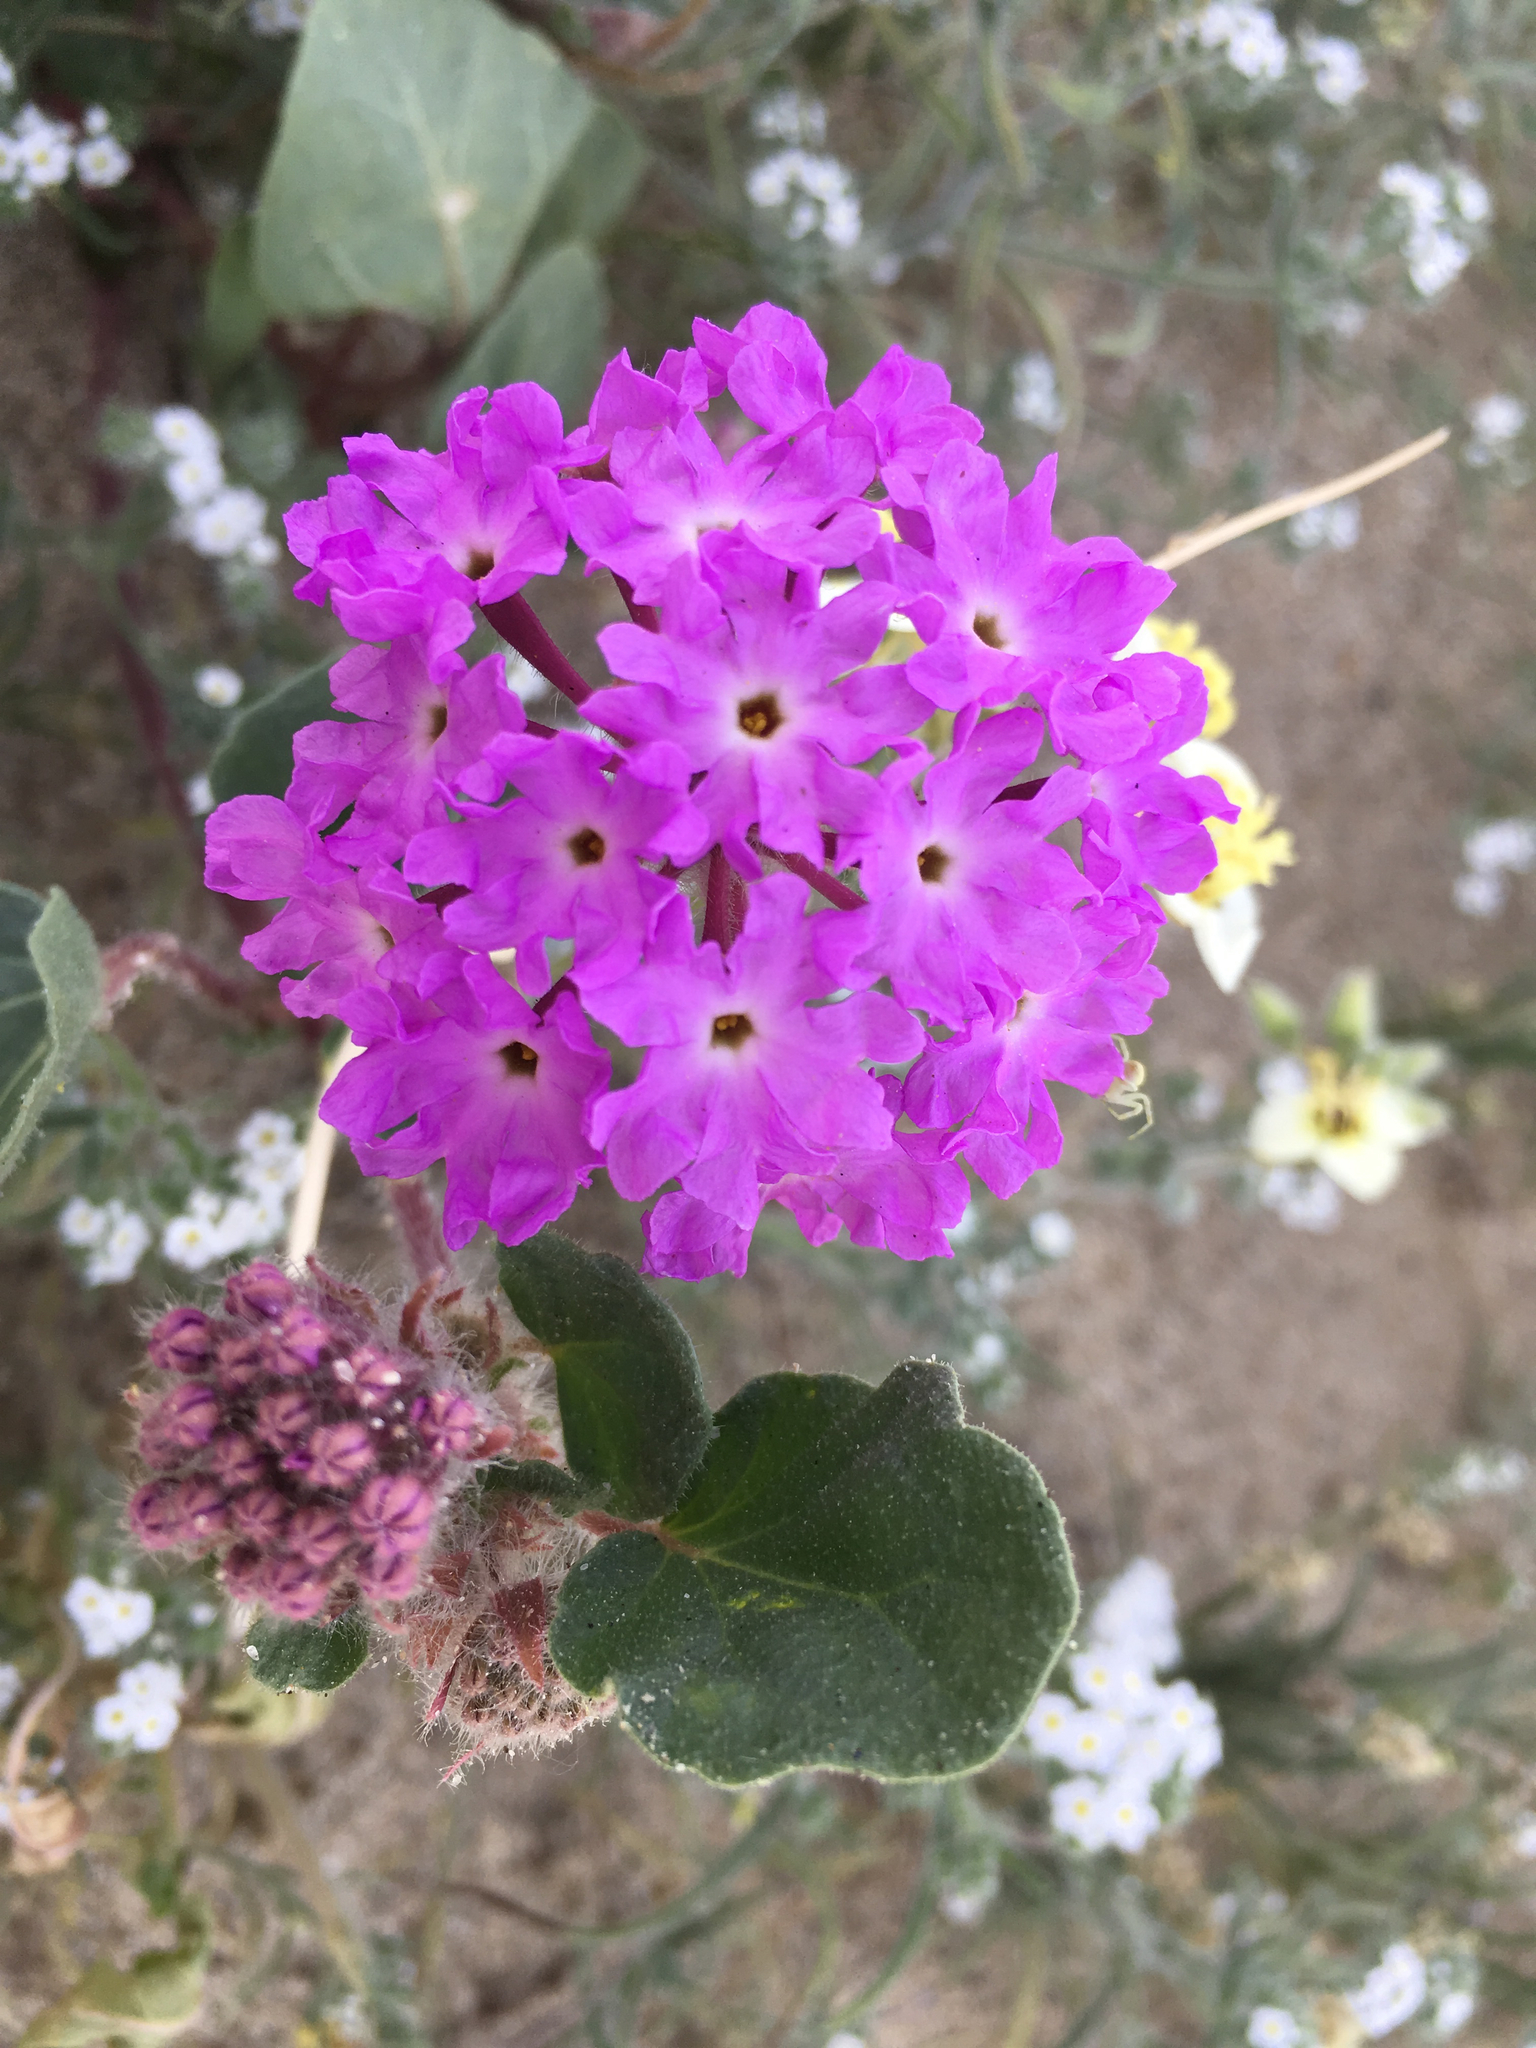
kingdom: Plantae
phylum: Tracheophyta
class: Magnoliopsida
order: Caryophyllales
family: Nyctaginaceae
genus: Abronia
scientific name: Abronia villosa
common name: Desert sand-verbena
